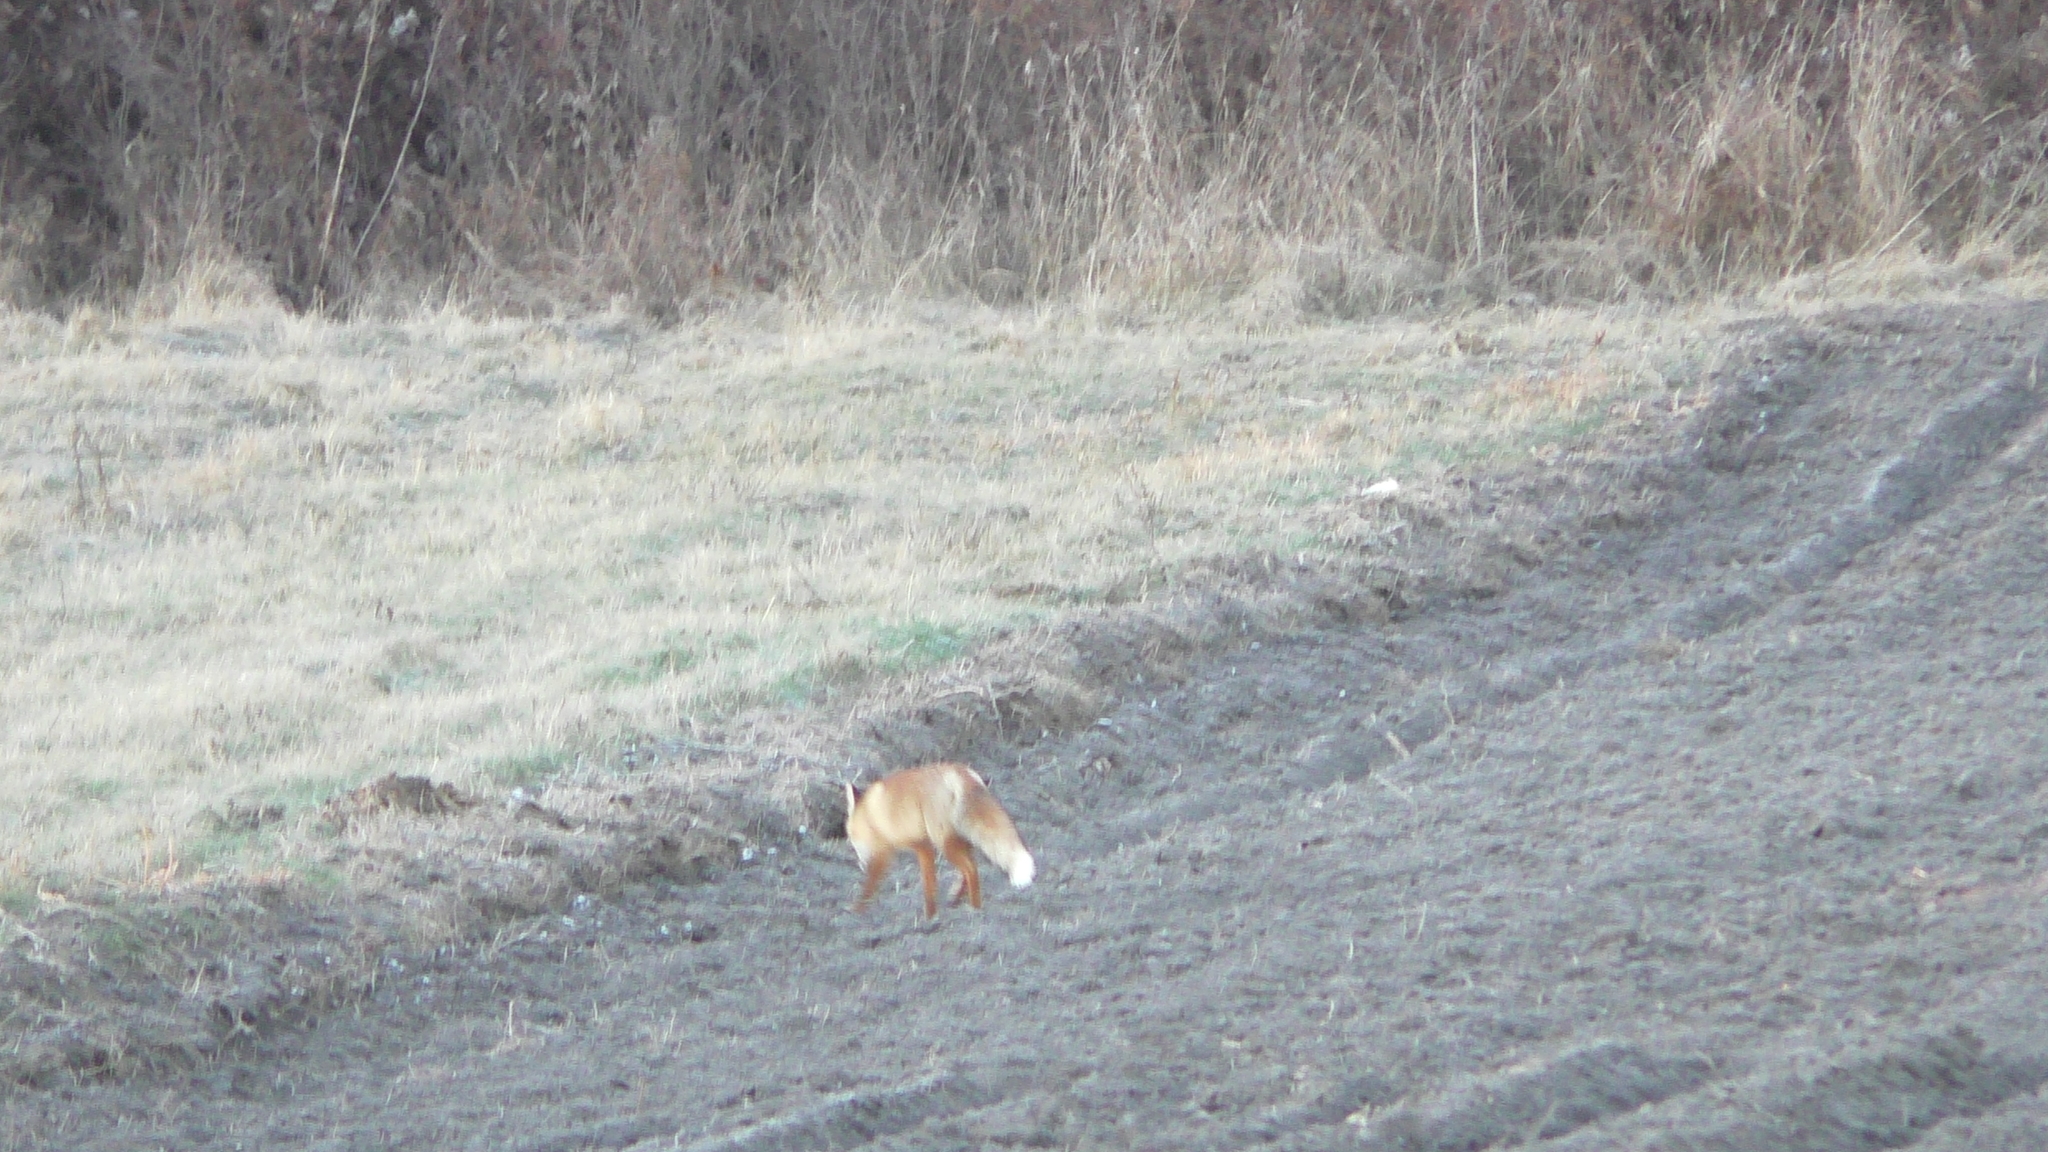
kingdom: Animalia
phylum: Chordata
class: Mammalia
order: Carnivora
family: Canidae
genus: Vulpes
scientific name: Vulpes vulpes
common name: Red fox
